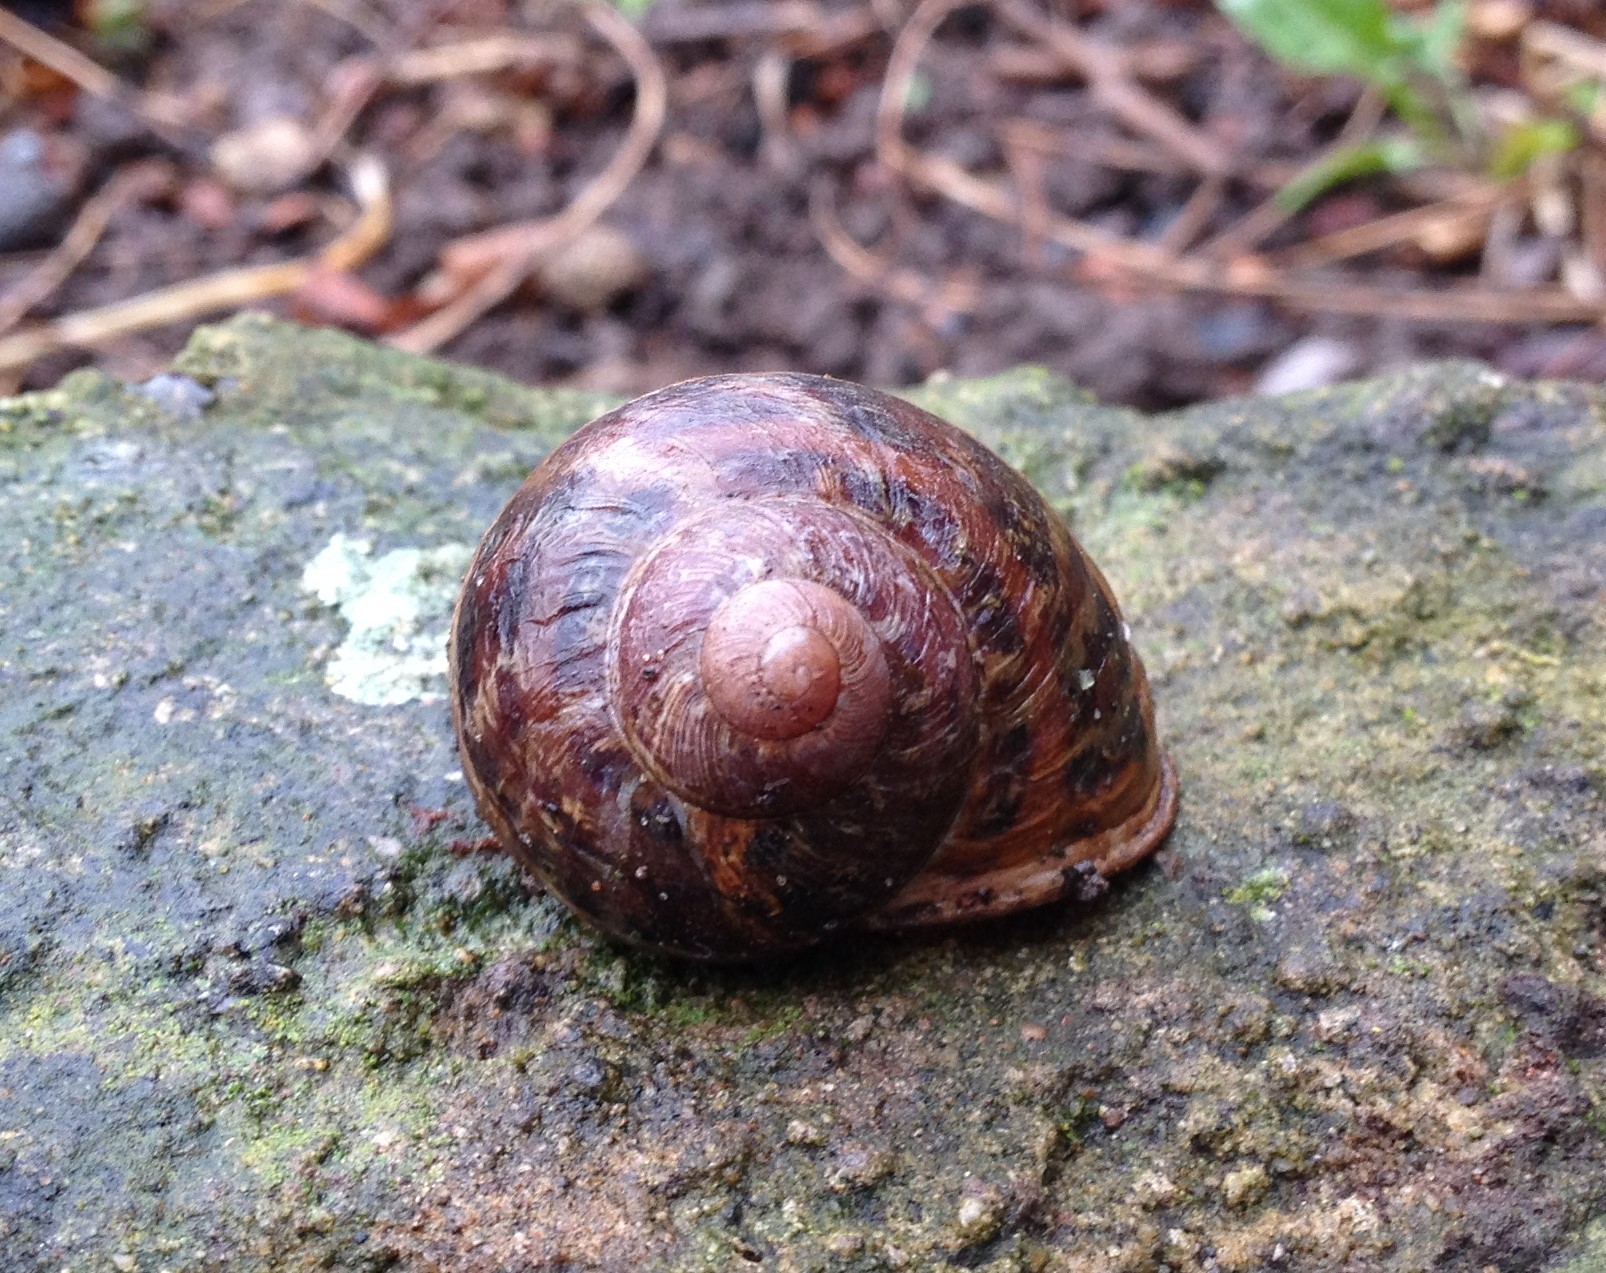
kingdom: Animalia
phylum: Mollusca
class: Gastropoda
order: Stylommatophora
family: Helicidae
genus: Cornu
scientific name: Cornu aspersum
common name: Brown garden snail
